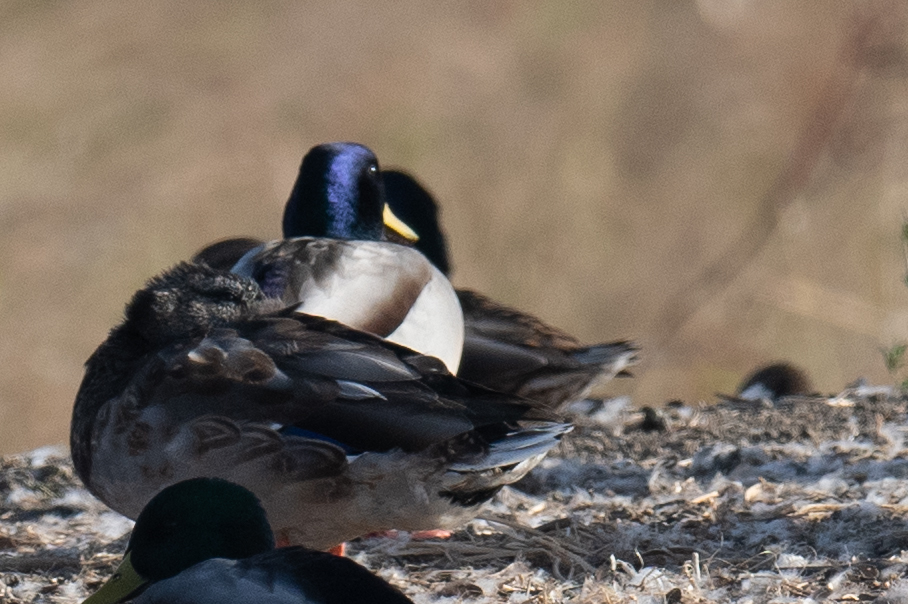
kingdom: Animalia
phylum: Chordata
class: Aves
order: Anseriformes
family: Anatidae
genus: Anas
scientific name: Anas platyrhynchos
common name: Mallard
